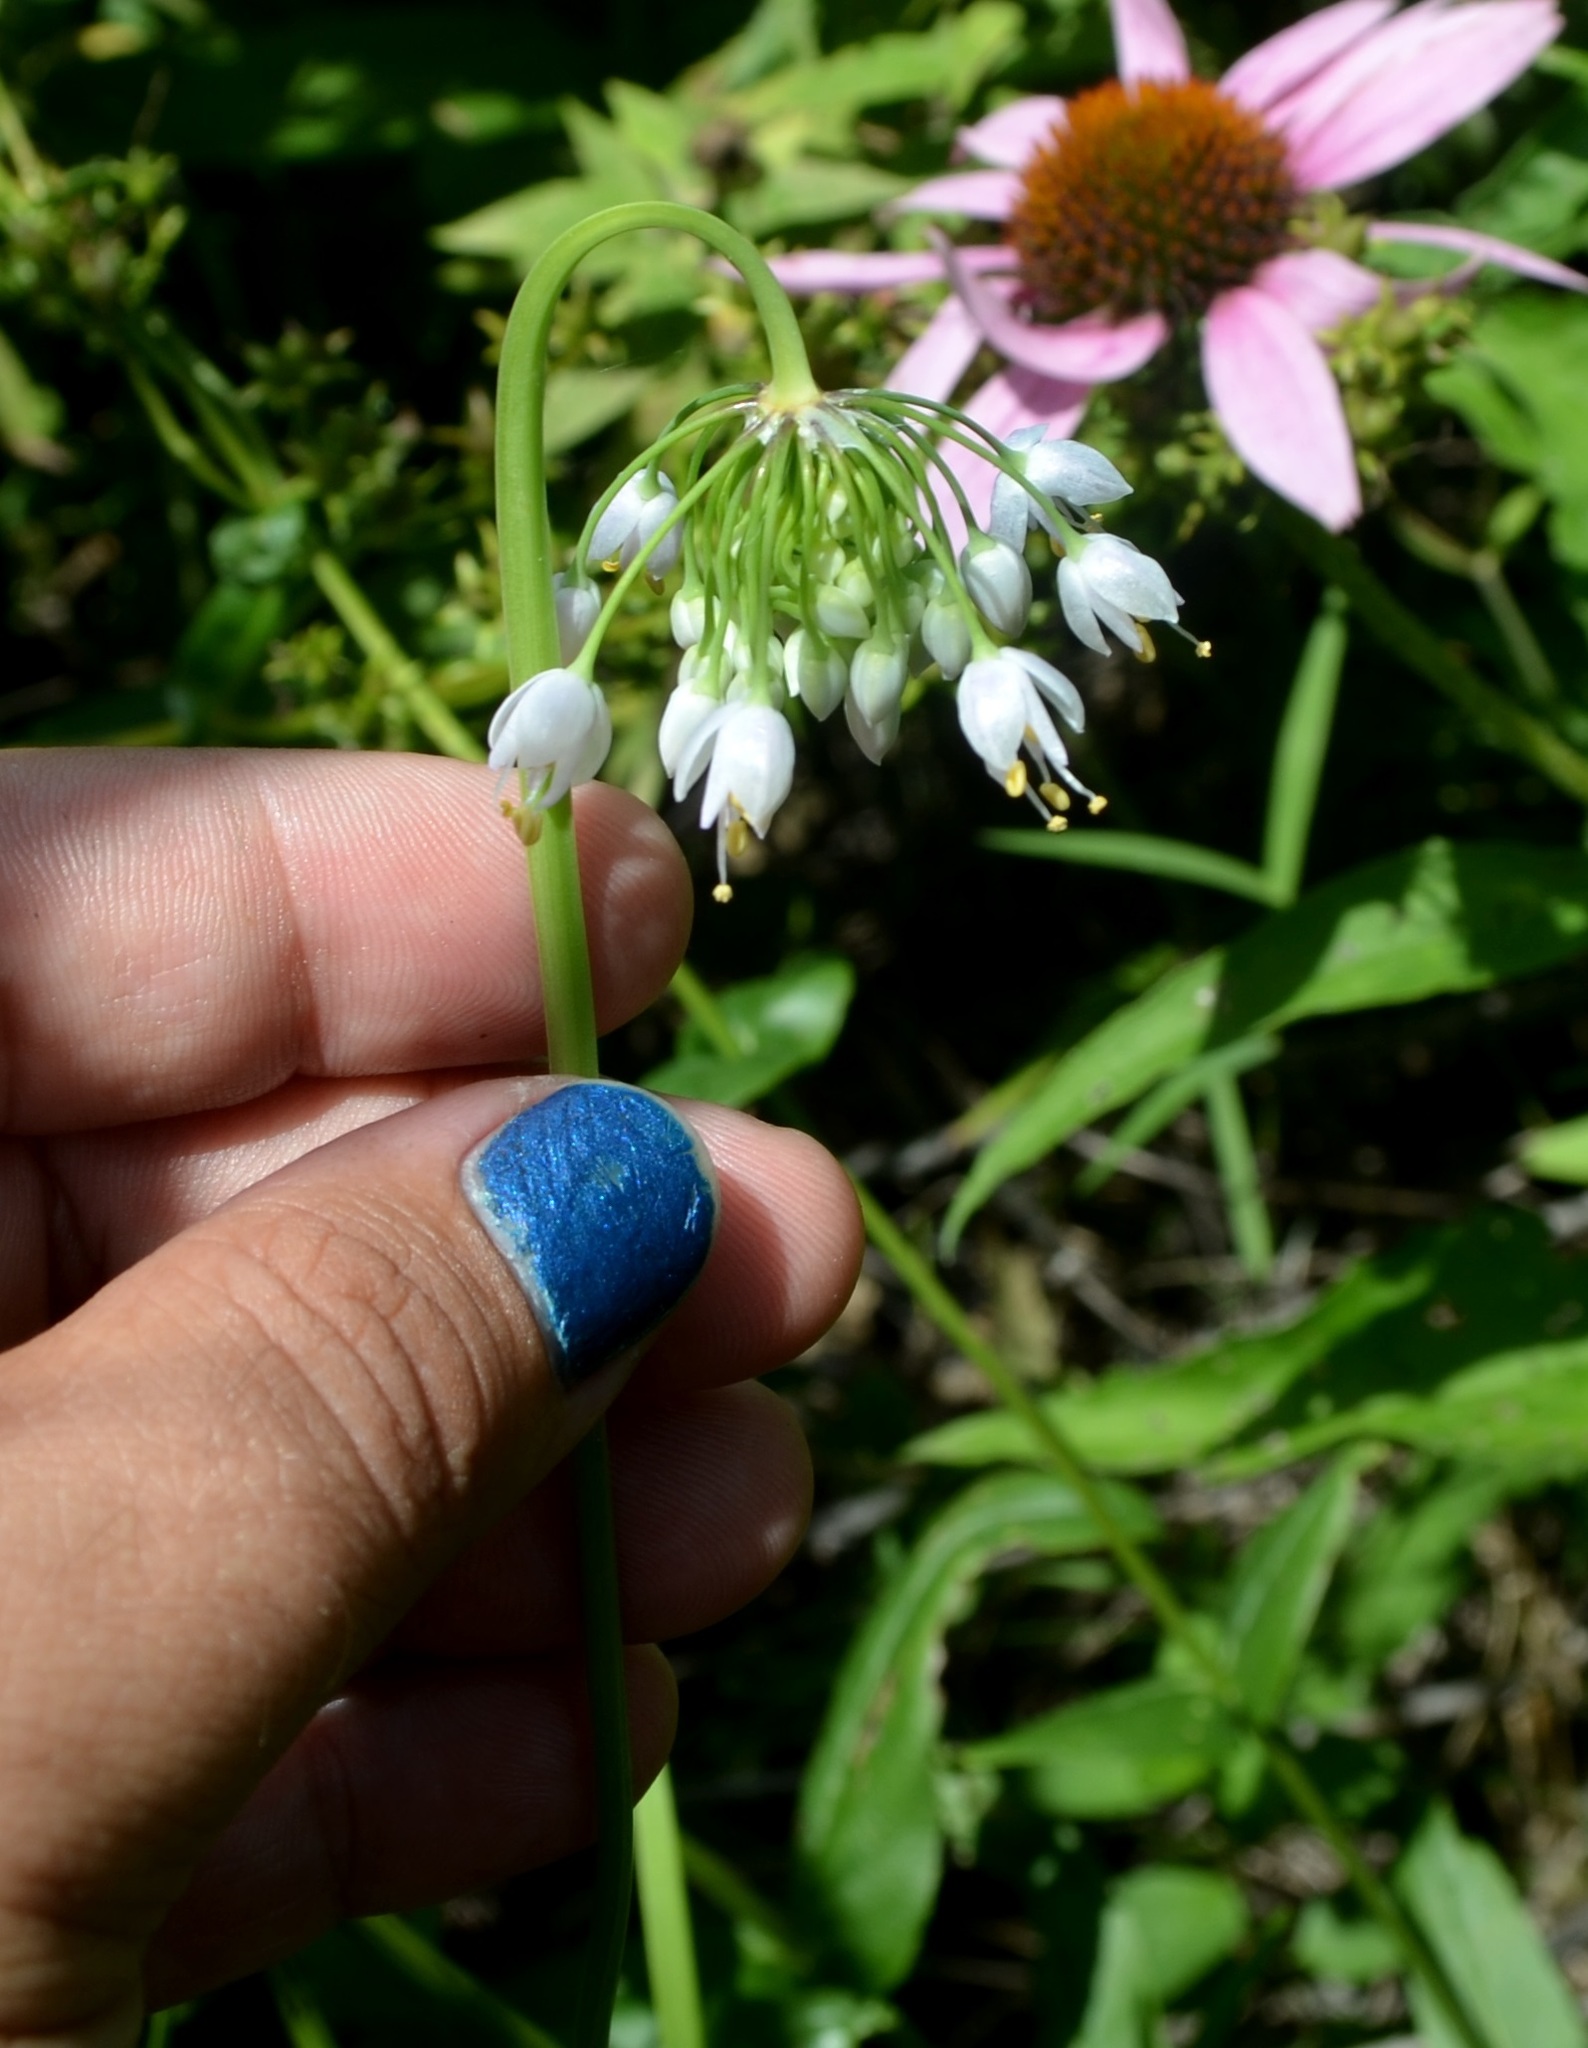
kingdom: Plantae
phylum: Tracheophyta
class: Liliopsida
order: Asparagales
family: Amaryllidaceae
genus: Allium
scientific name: Allium cernuum
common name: Nodding onion
